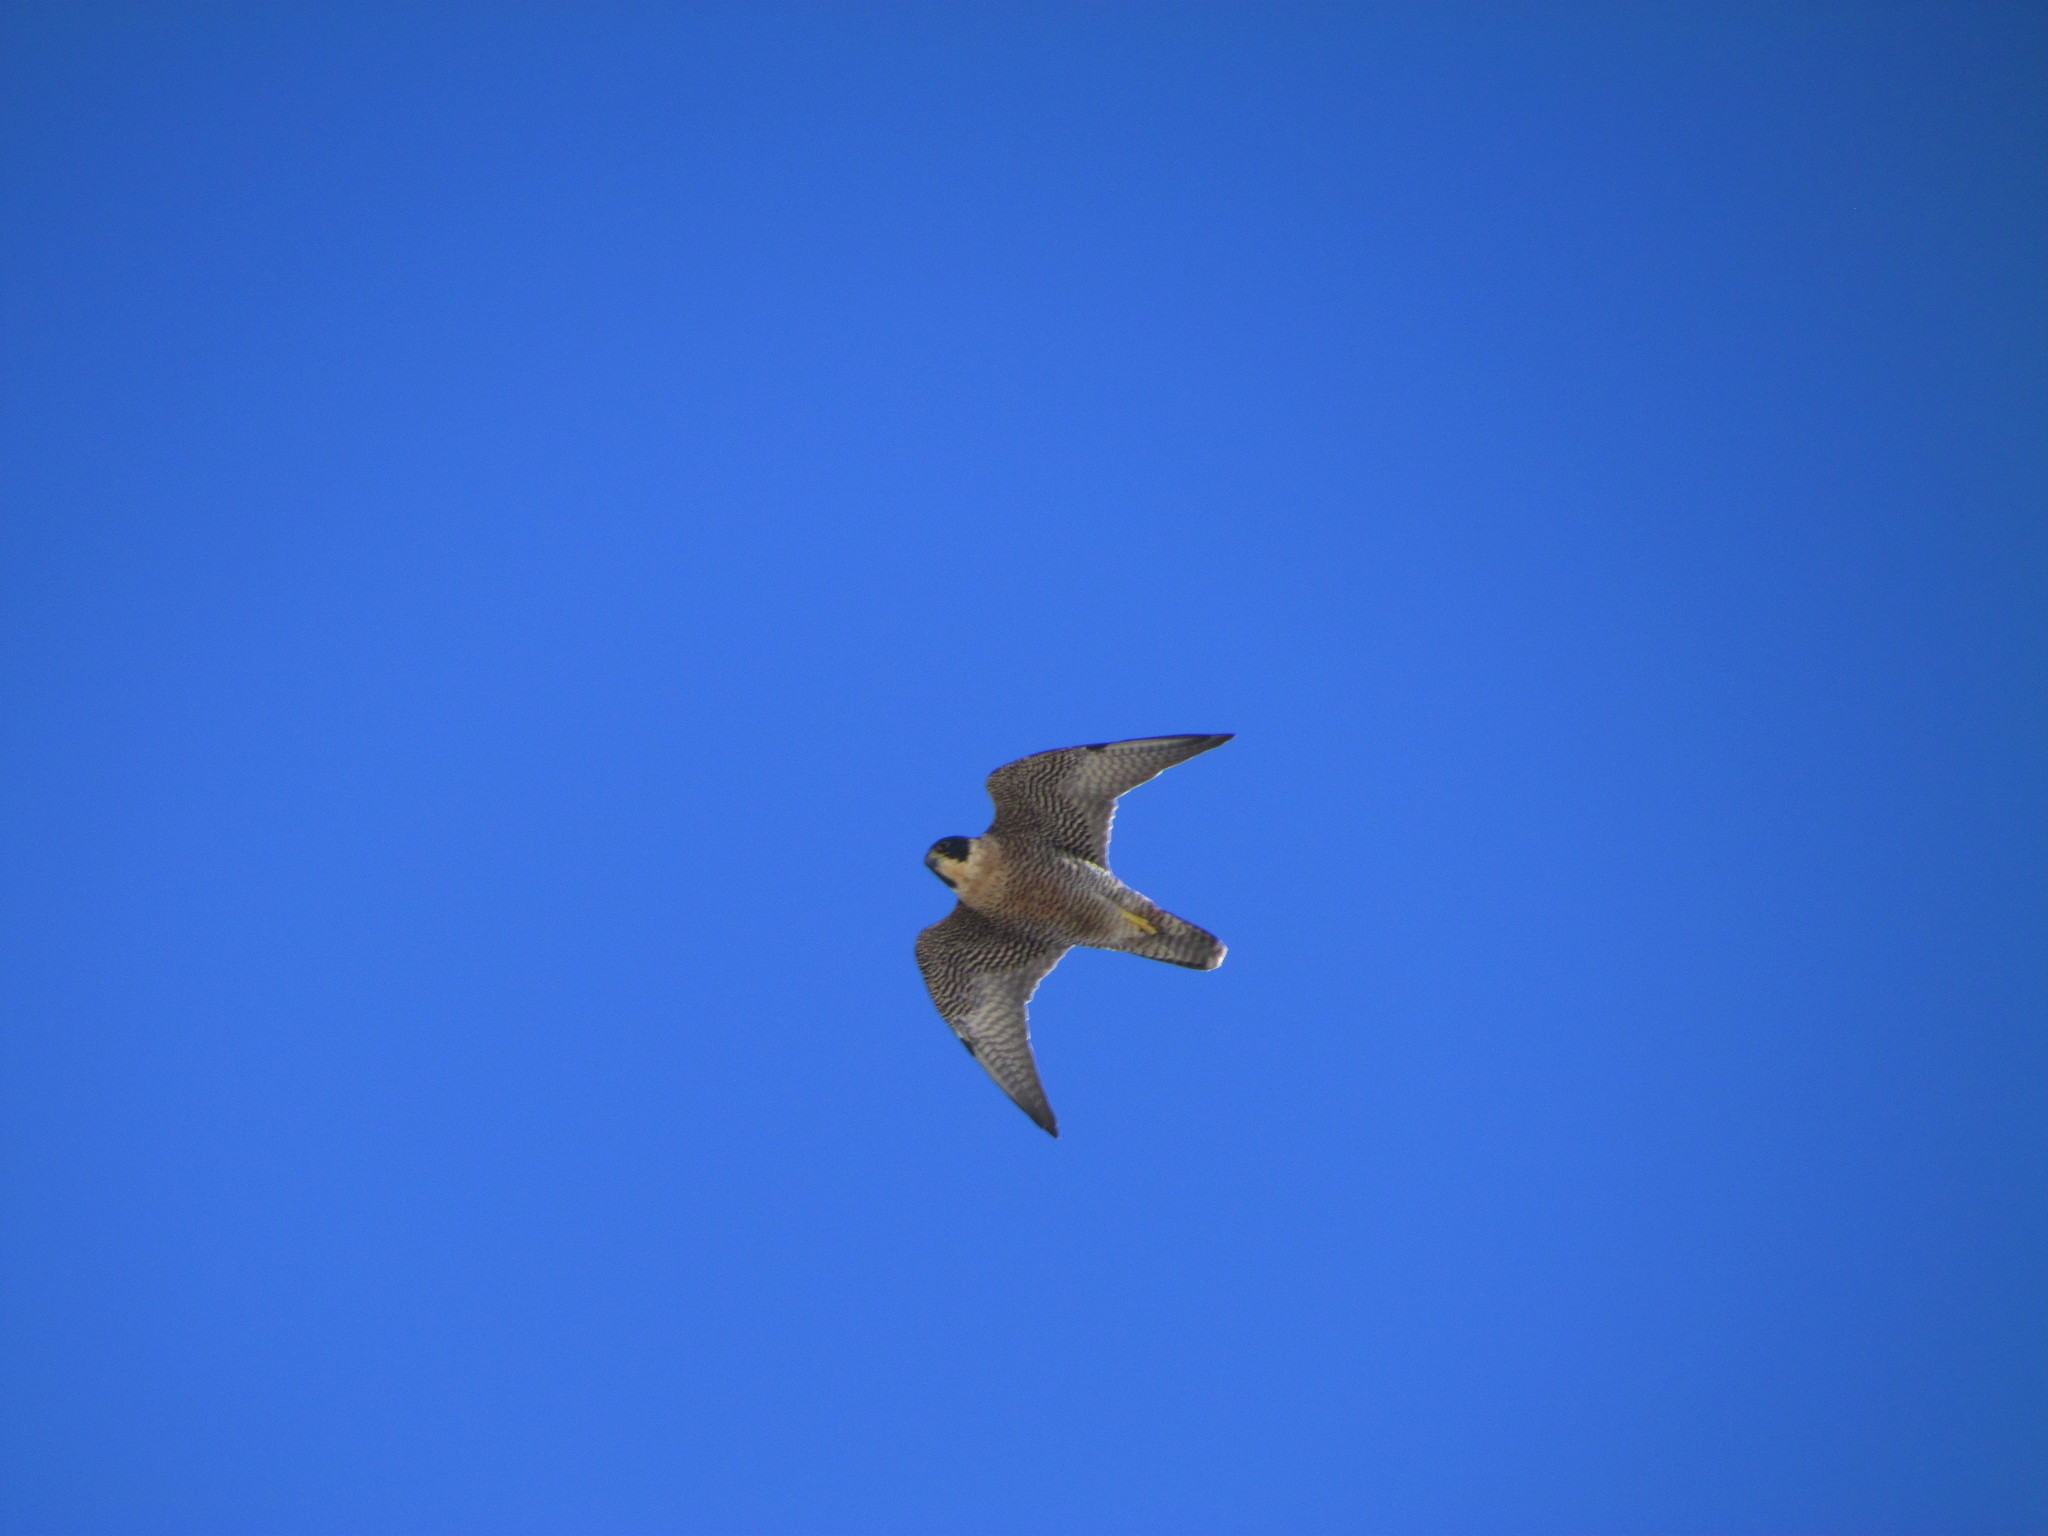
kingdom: Animalia
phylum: Chordata
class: Aves
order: Falconiformes
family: Falconidae
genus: Falco
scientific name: Falco peregrinus
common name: Peregrine falcon
